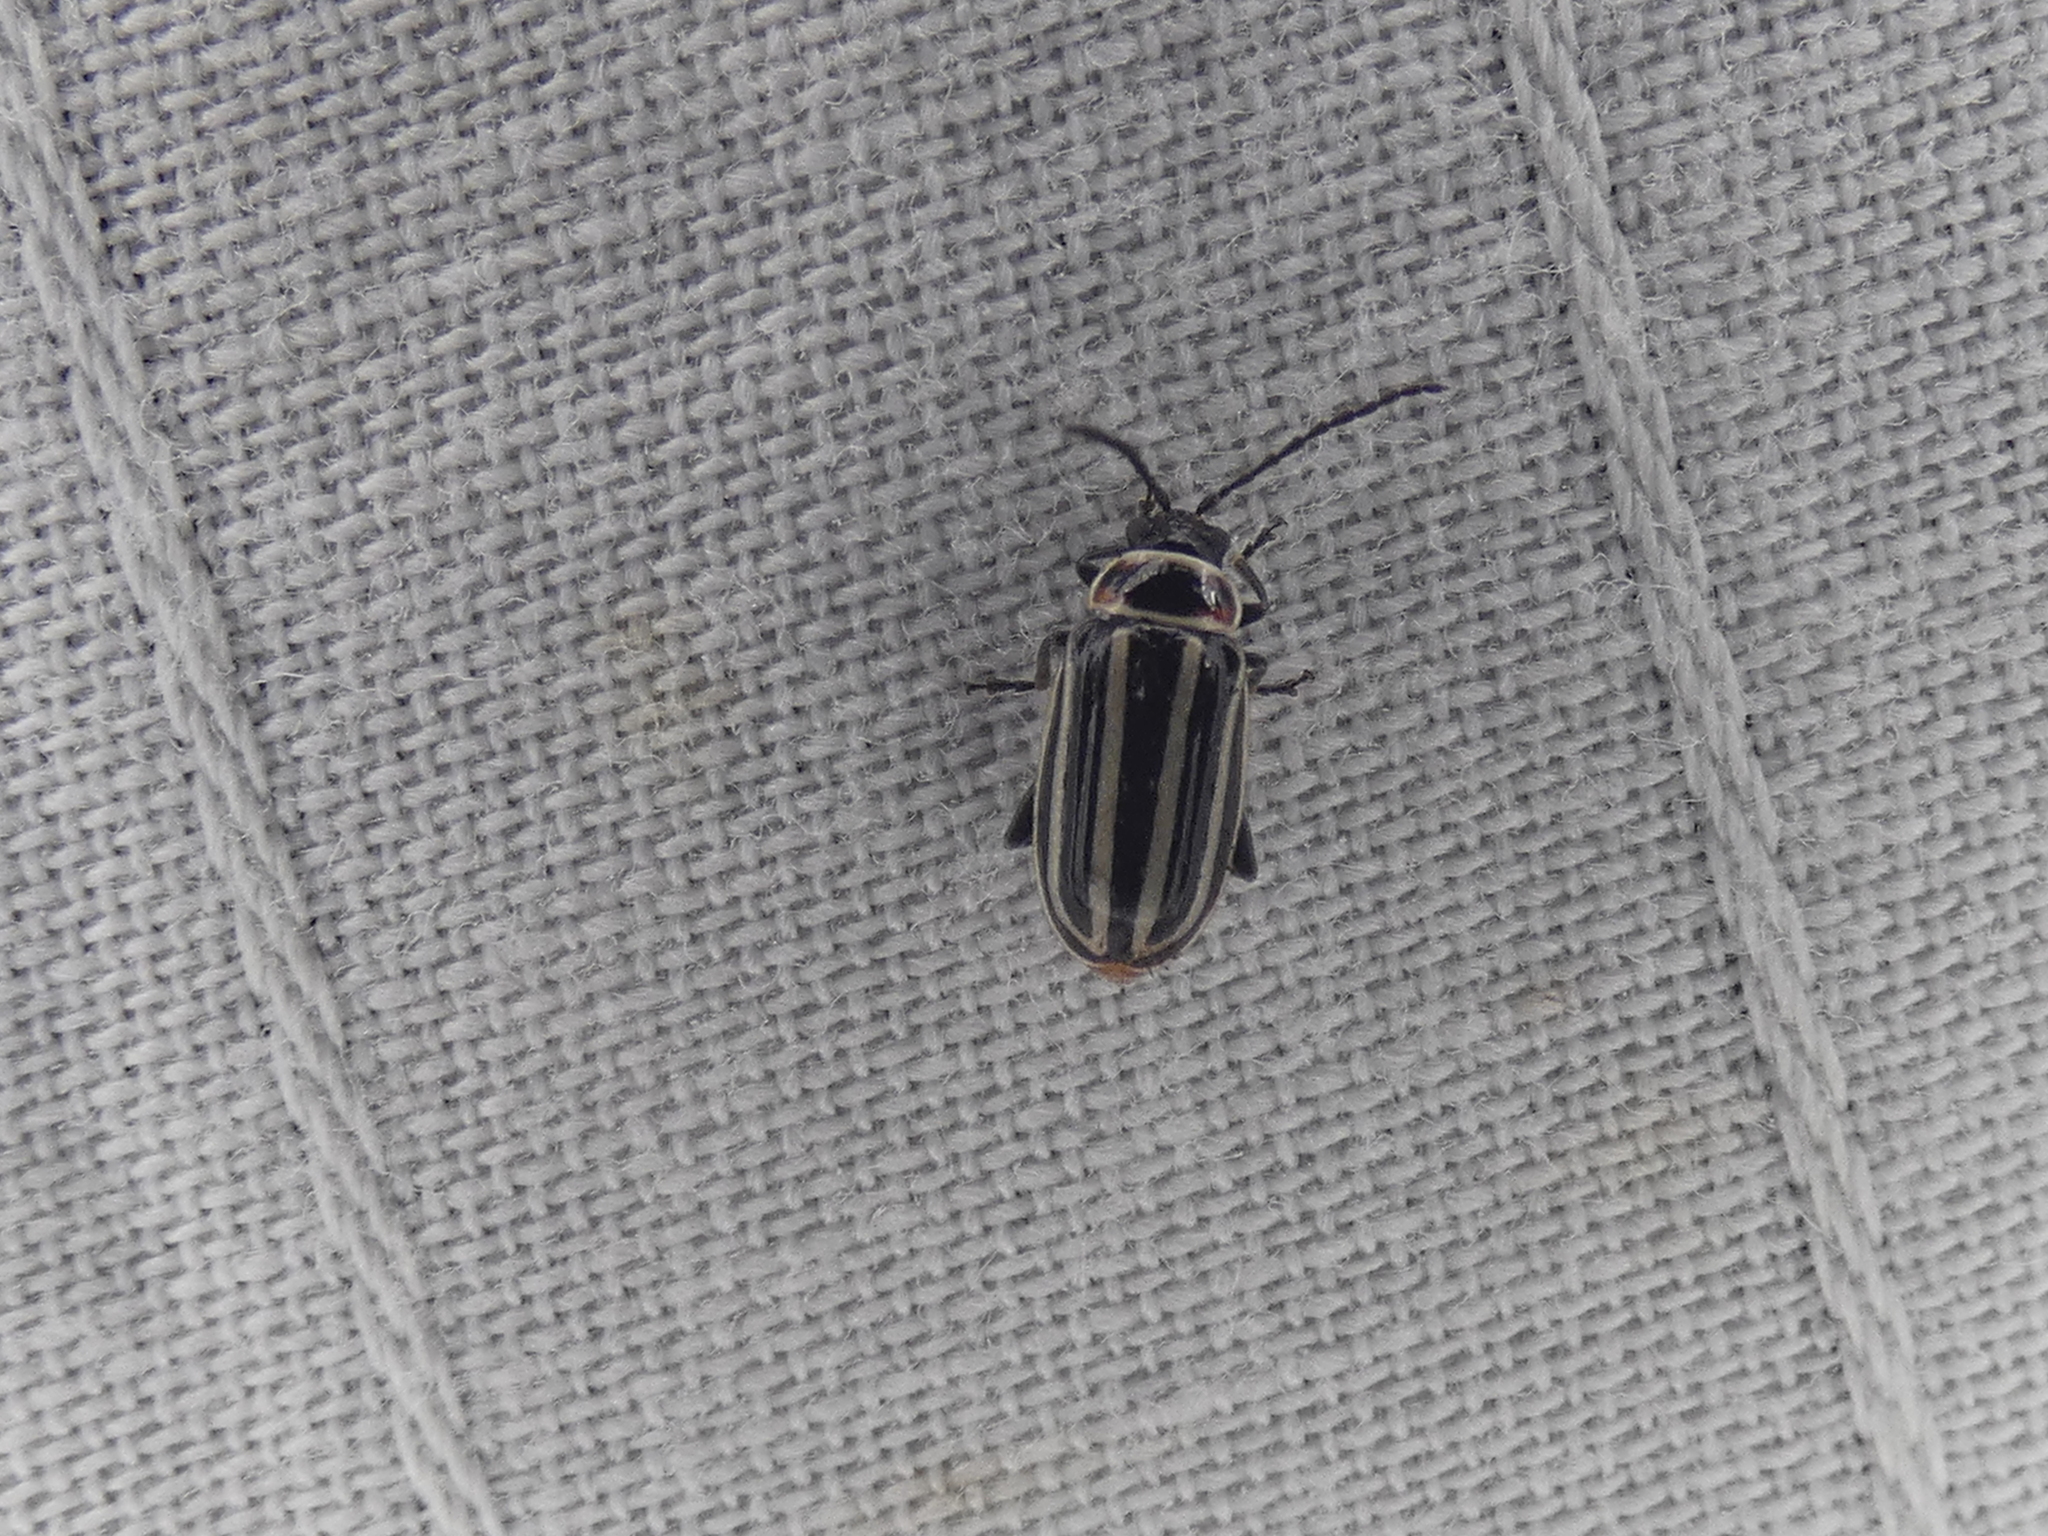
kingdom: Animalia
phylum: Arthropoda
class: Insecta
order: Coleoptera
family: Chrysomelidae
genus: Disonycha
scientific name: Disonycha pensylvanica
